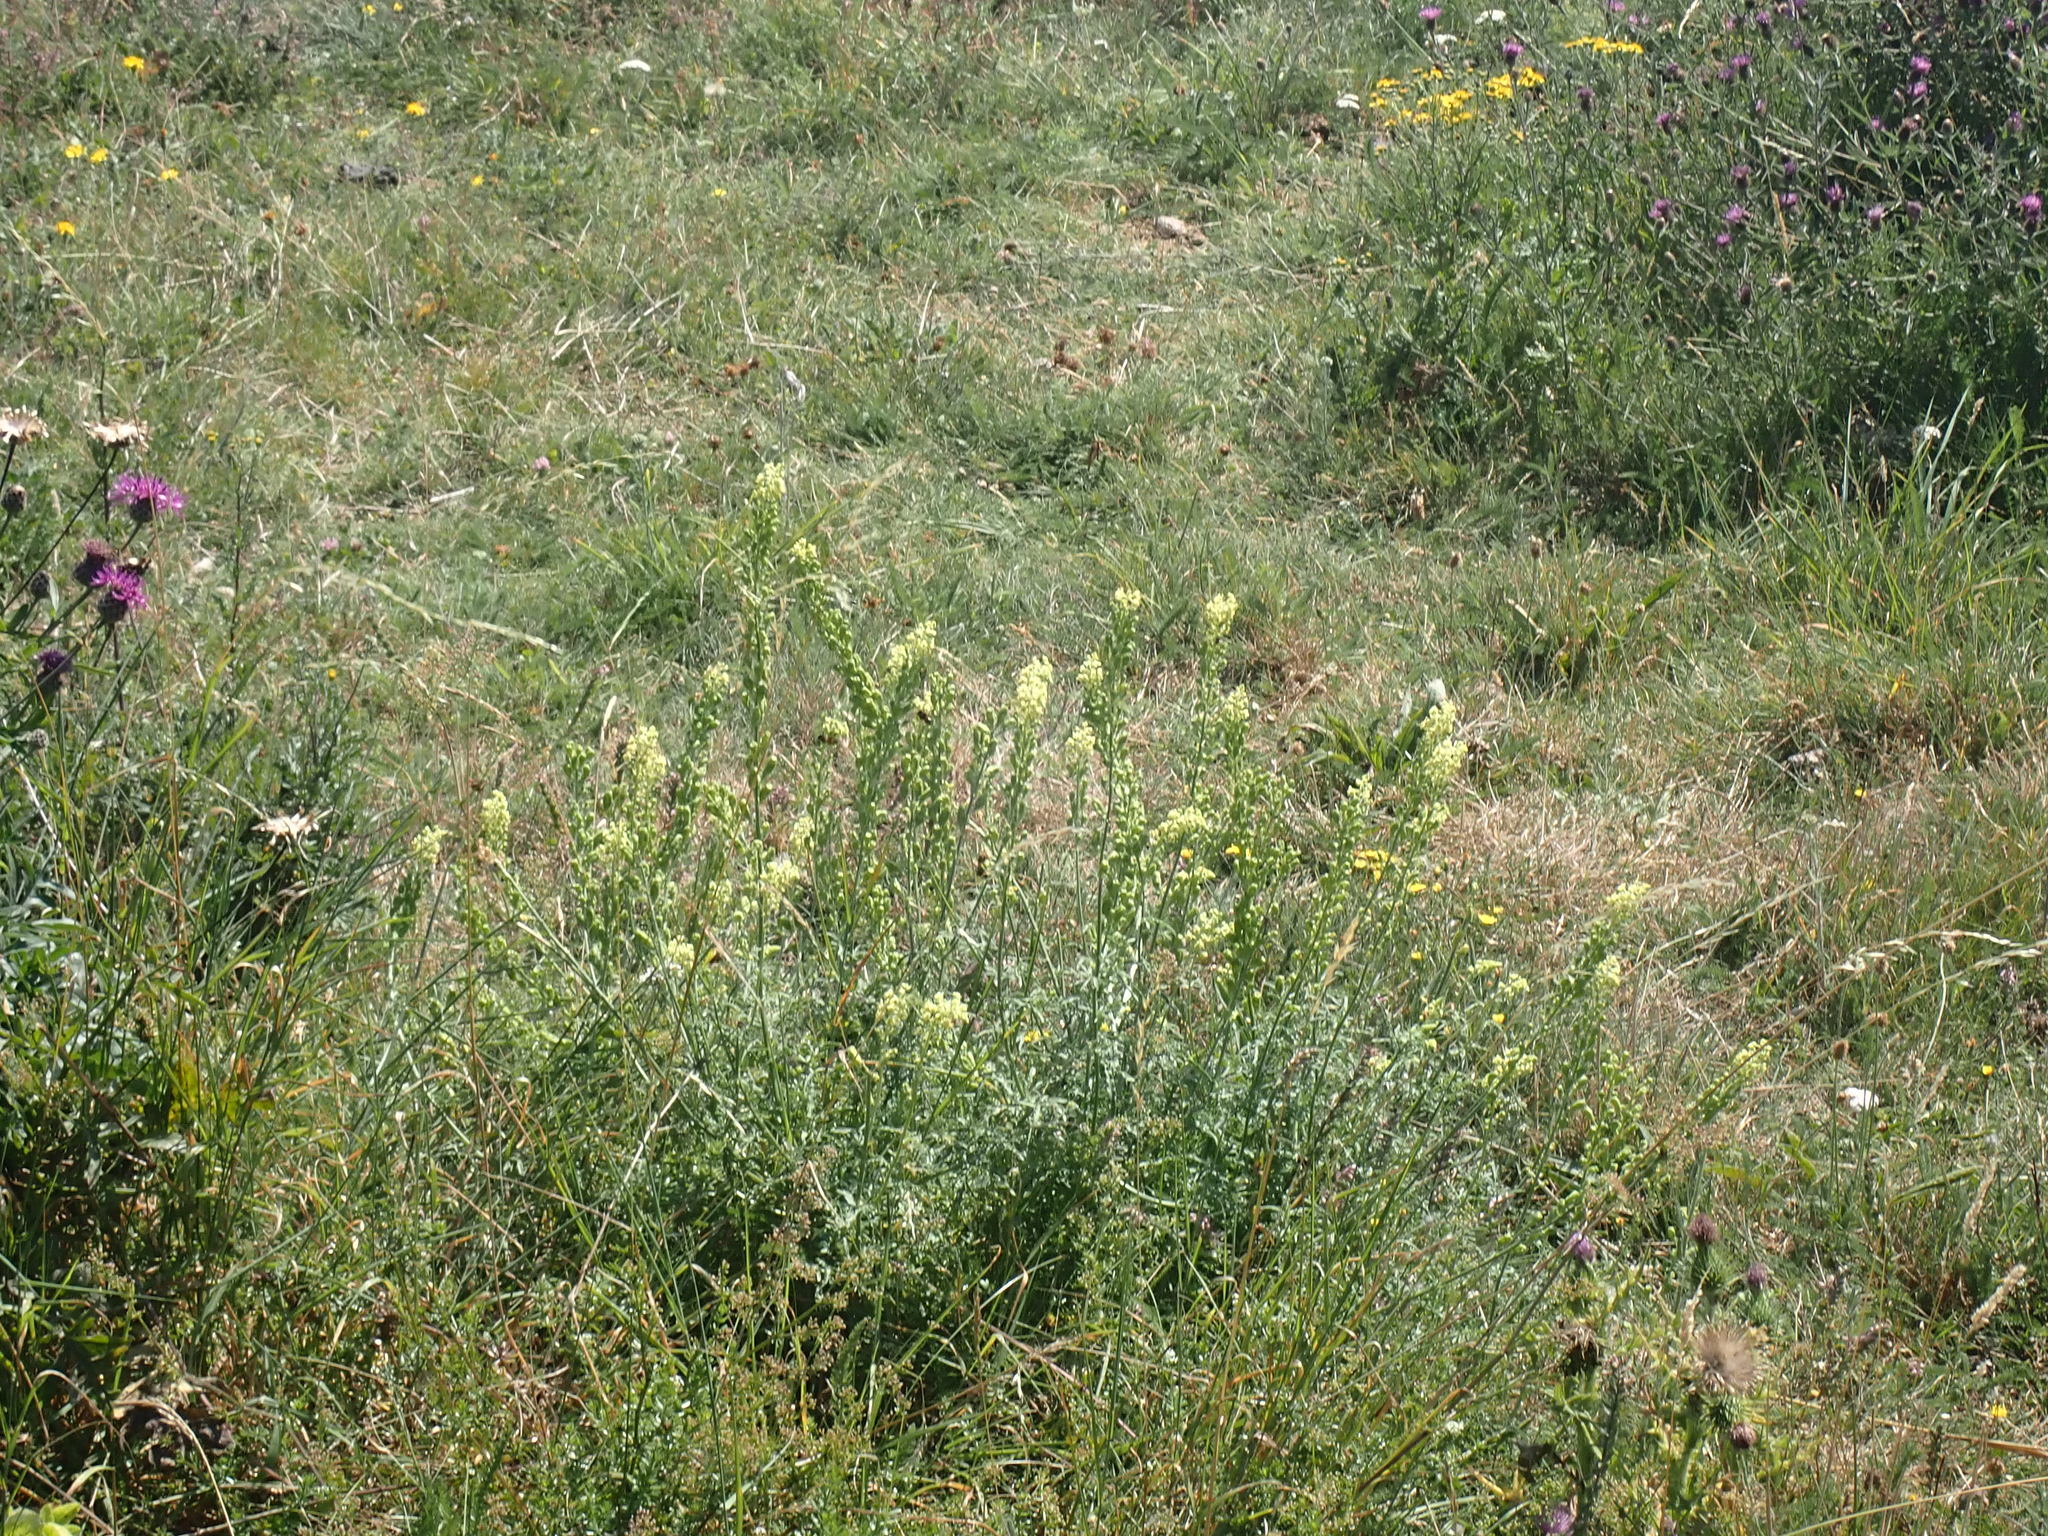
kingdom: Plantae
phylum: Tracheophyta
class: Magnoliopsida
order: Brassicales
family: Resedaceae
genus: Reseda
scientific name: Reseda lutea
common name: Wild mignonette
